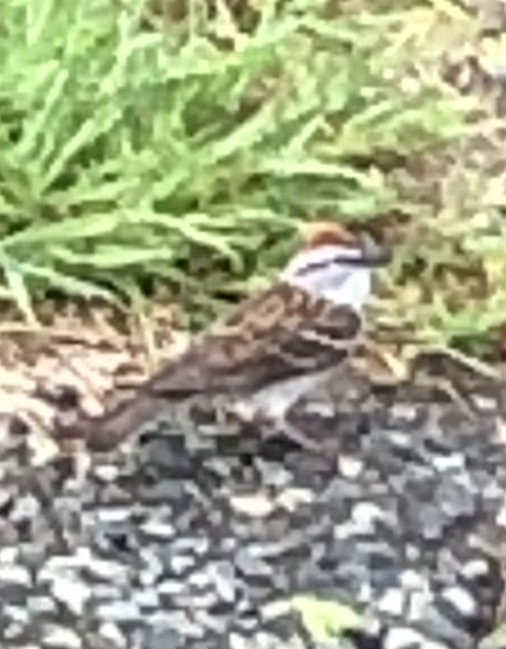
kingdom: Animalia
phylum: Chordata
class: Aves
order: Passeriformes
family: Passerellidae
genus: Spizella
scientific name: Spizella passerina
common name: Chipping sparrow
